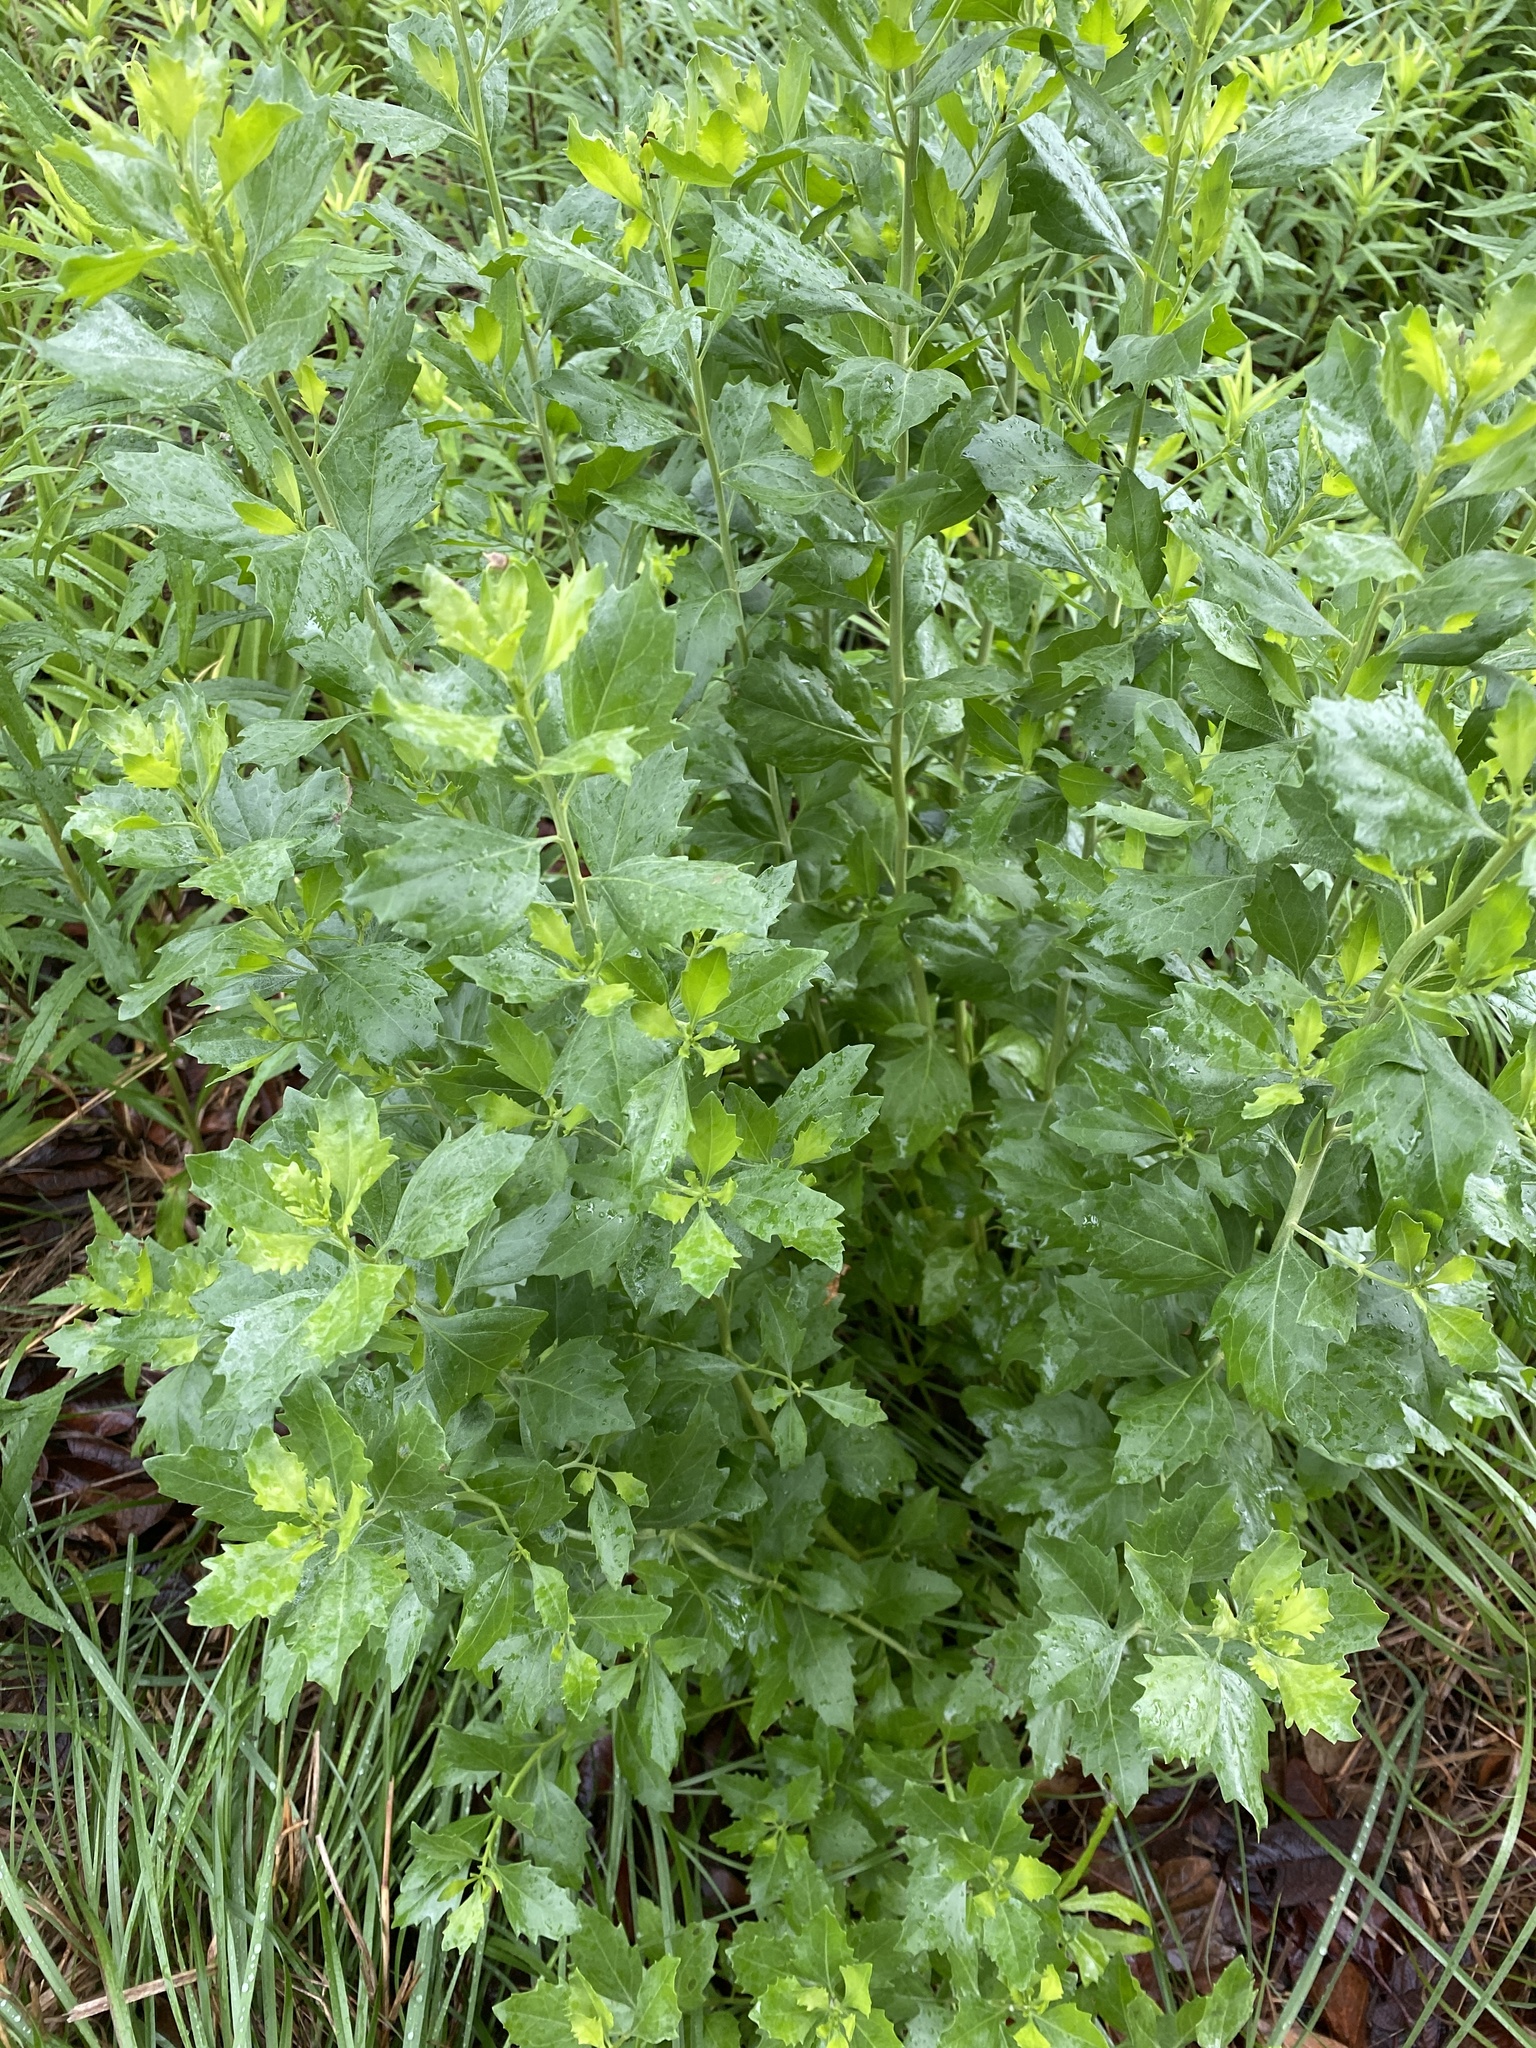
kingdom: Plantae
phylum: Tracheophyta
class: Magnoliopsida
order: Asterales
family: Asteraceae
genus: Baccharis
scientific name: Baccharis halimifolia
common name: Eastern baccharis
